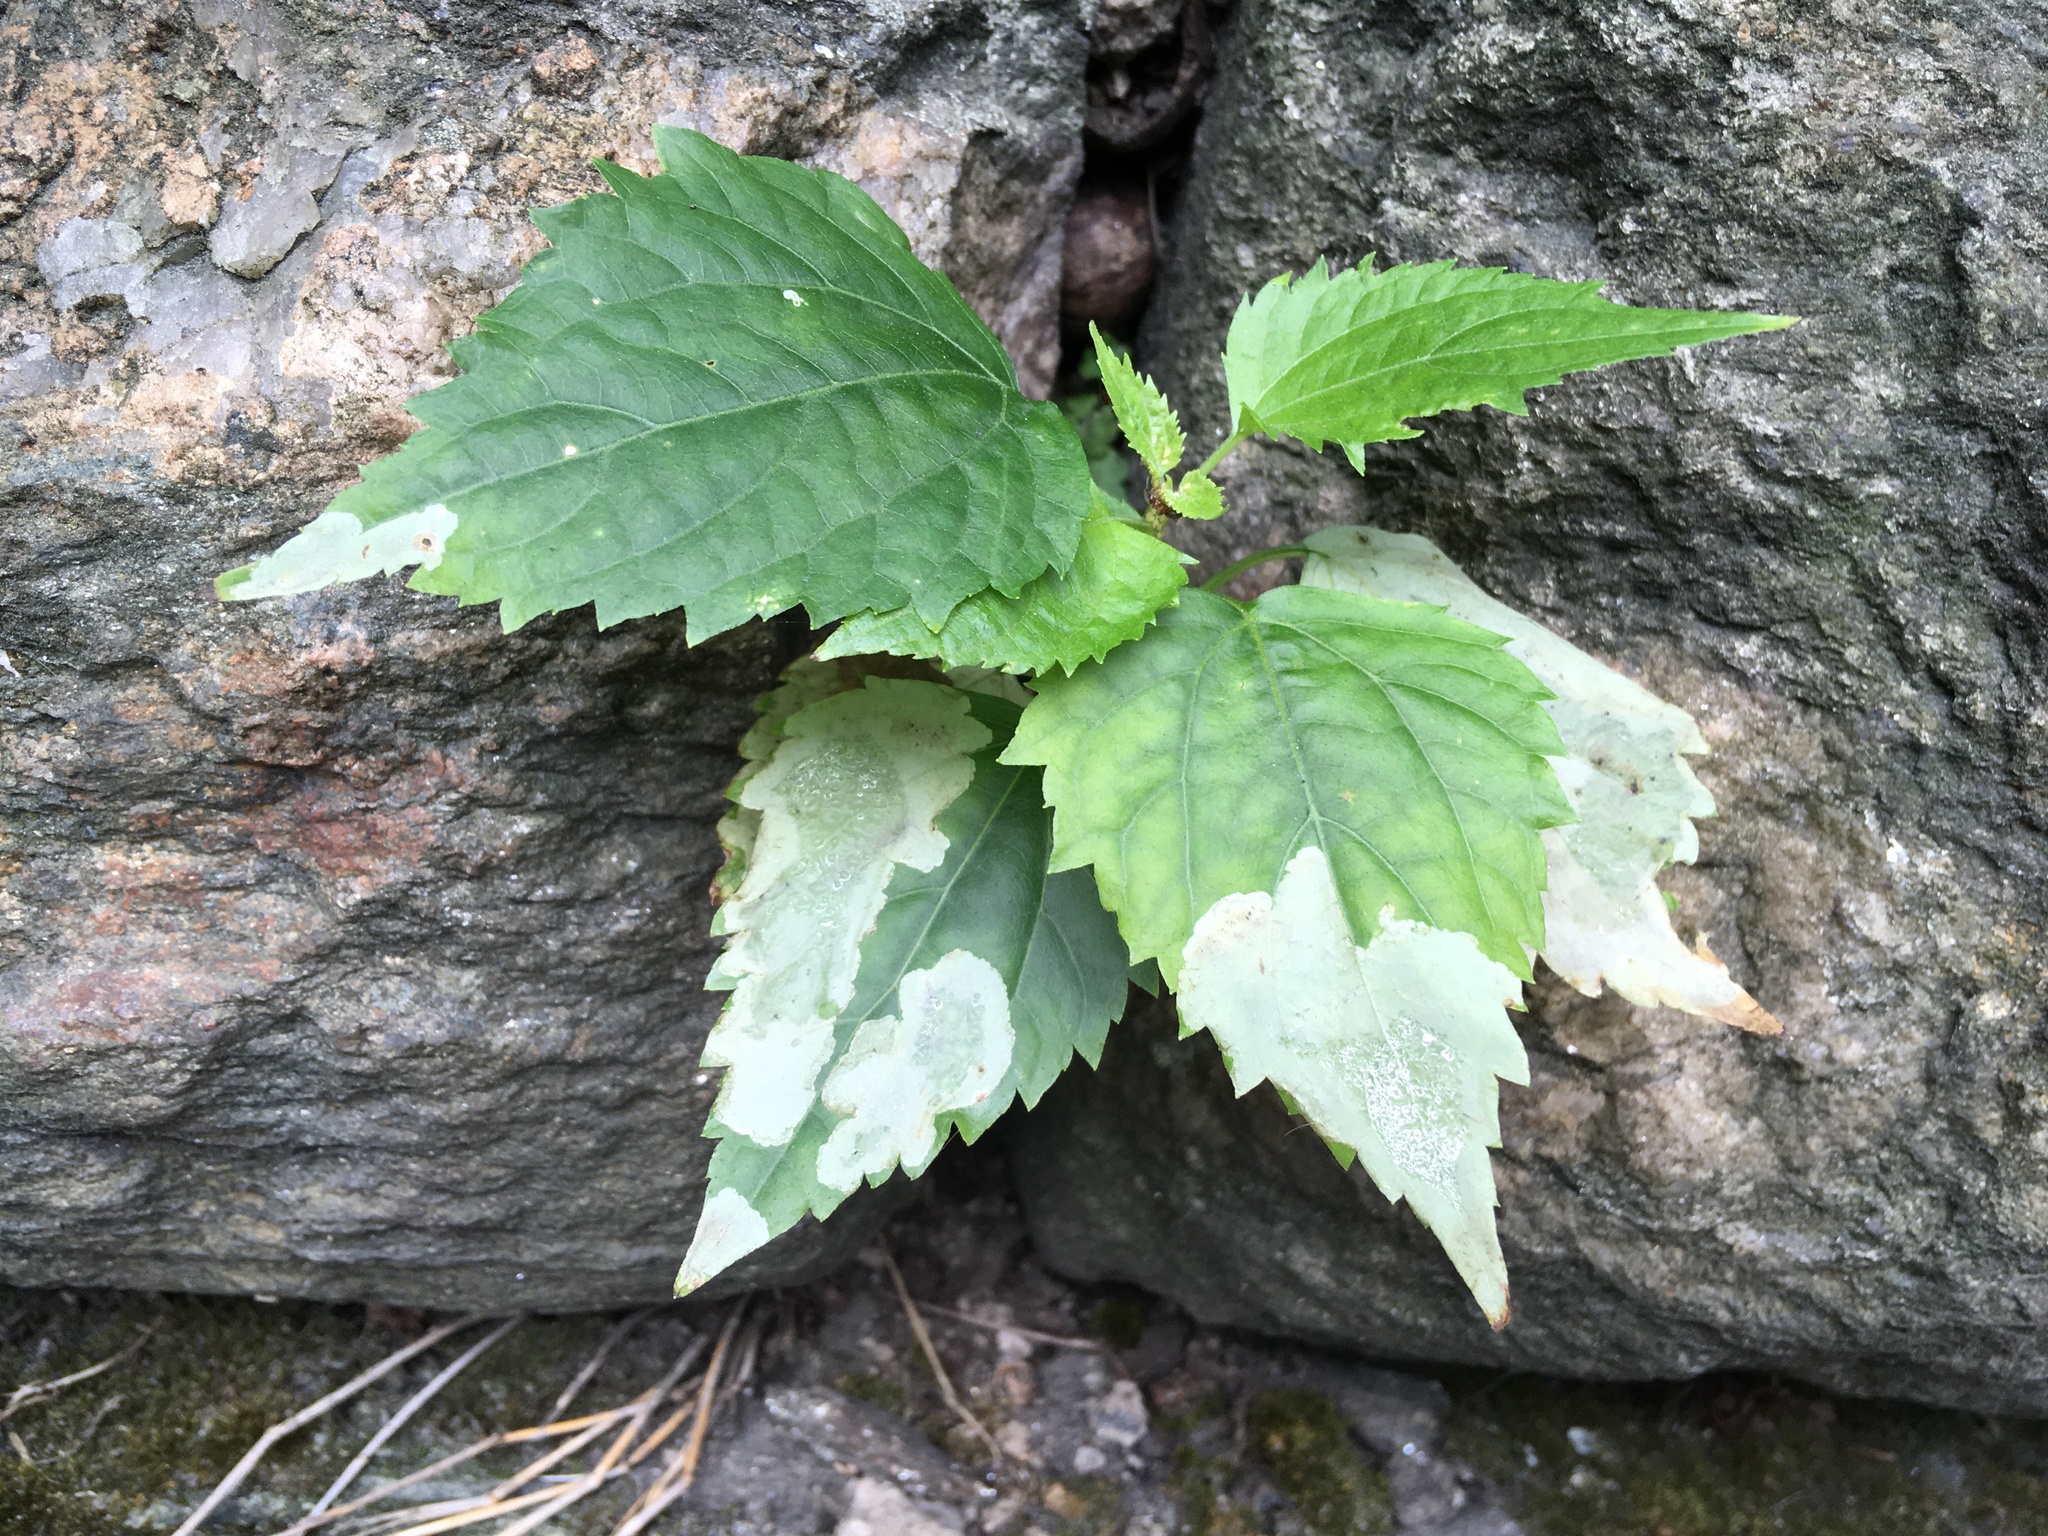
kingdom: Plantae
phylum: Tracheophyta
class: Magnoliopsida
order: Asterales
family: Asteraceae
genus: Ageratina
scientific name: Ageratina altissima
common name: White snakeroot
